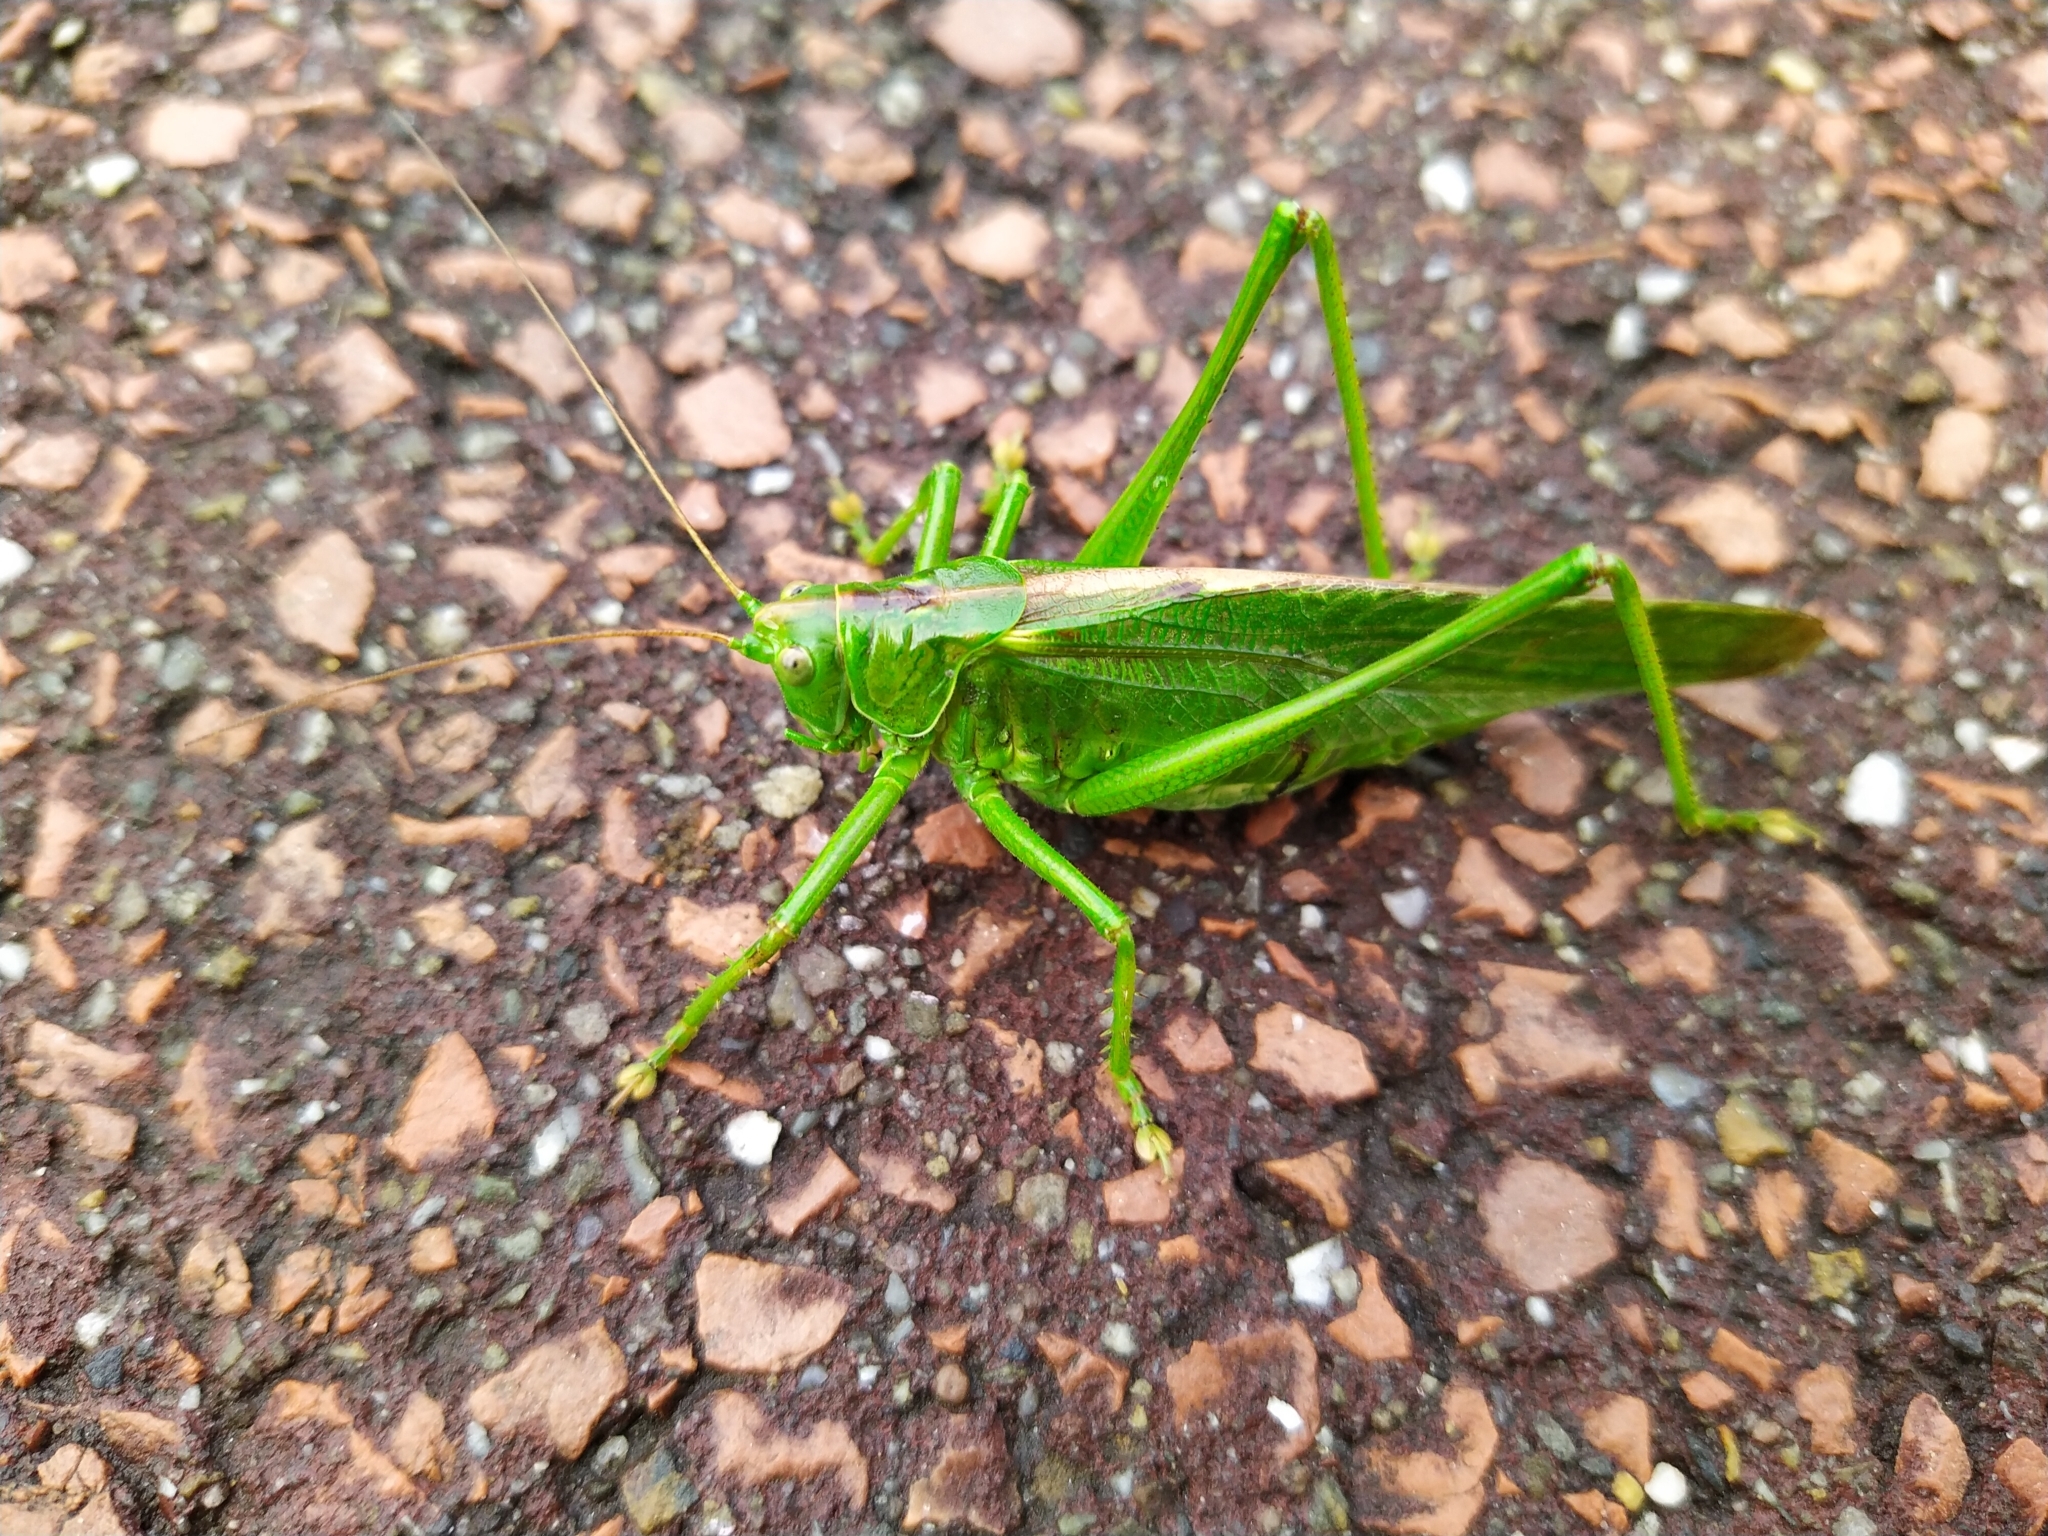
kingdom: Animalia
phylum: Arthropoda
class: Insecta
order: Orthoptera
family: Tettigoniidae
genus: Tettigonia
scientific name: Tettigonia viridissima
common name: Great green bush-cricket
